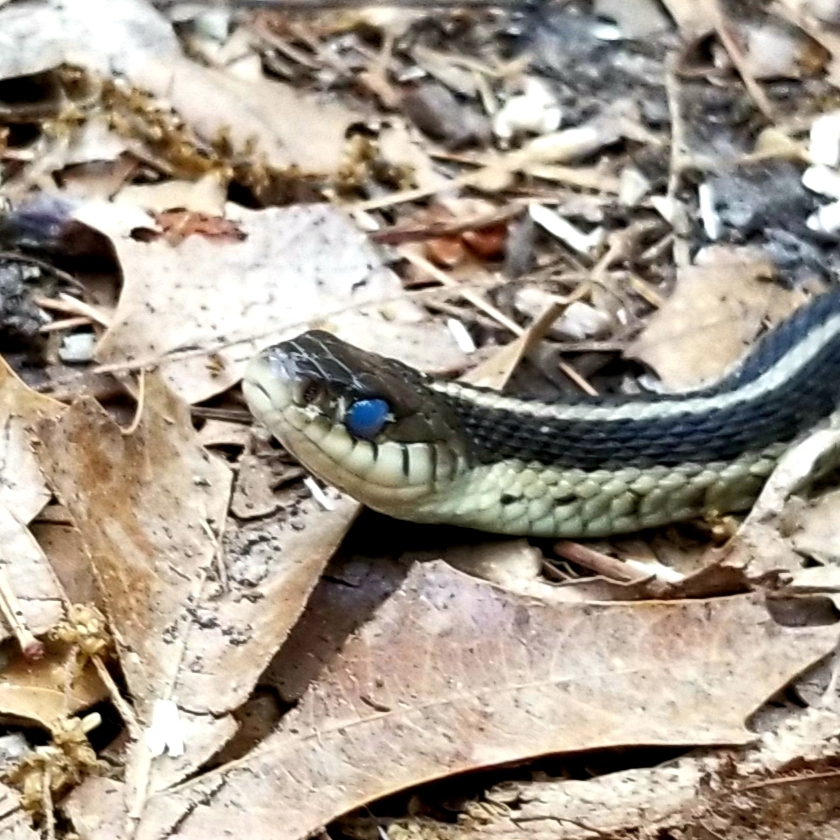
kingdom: Animalia
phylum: Chordata
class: Squamata
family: Colubridae
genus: Thamnophis
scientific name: Thamnophis sirtalis
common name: Common garter snake
